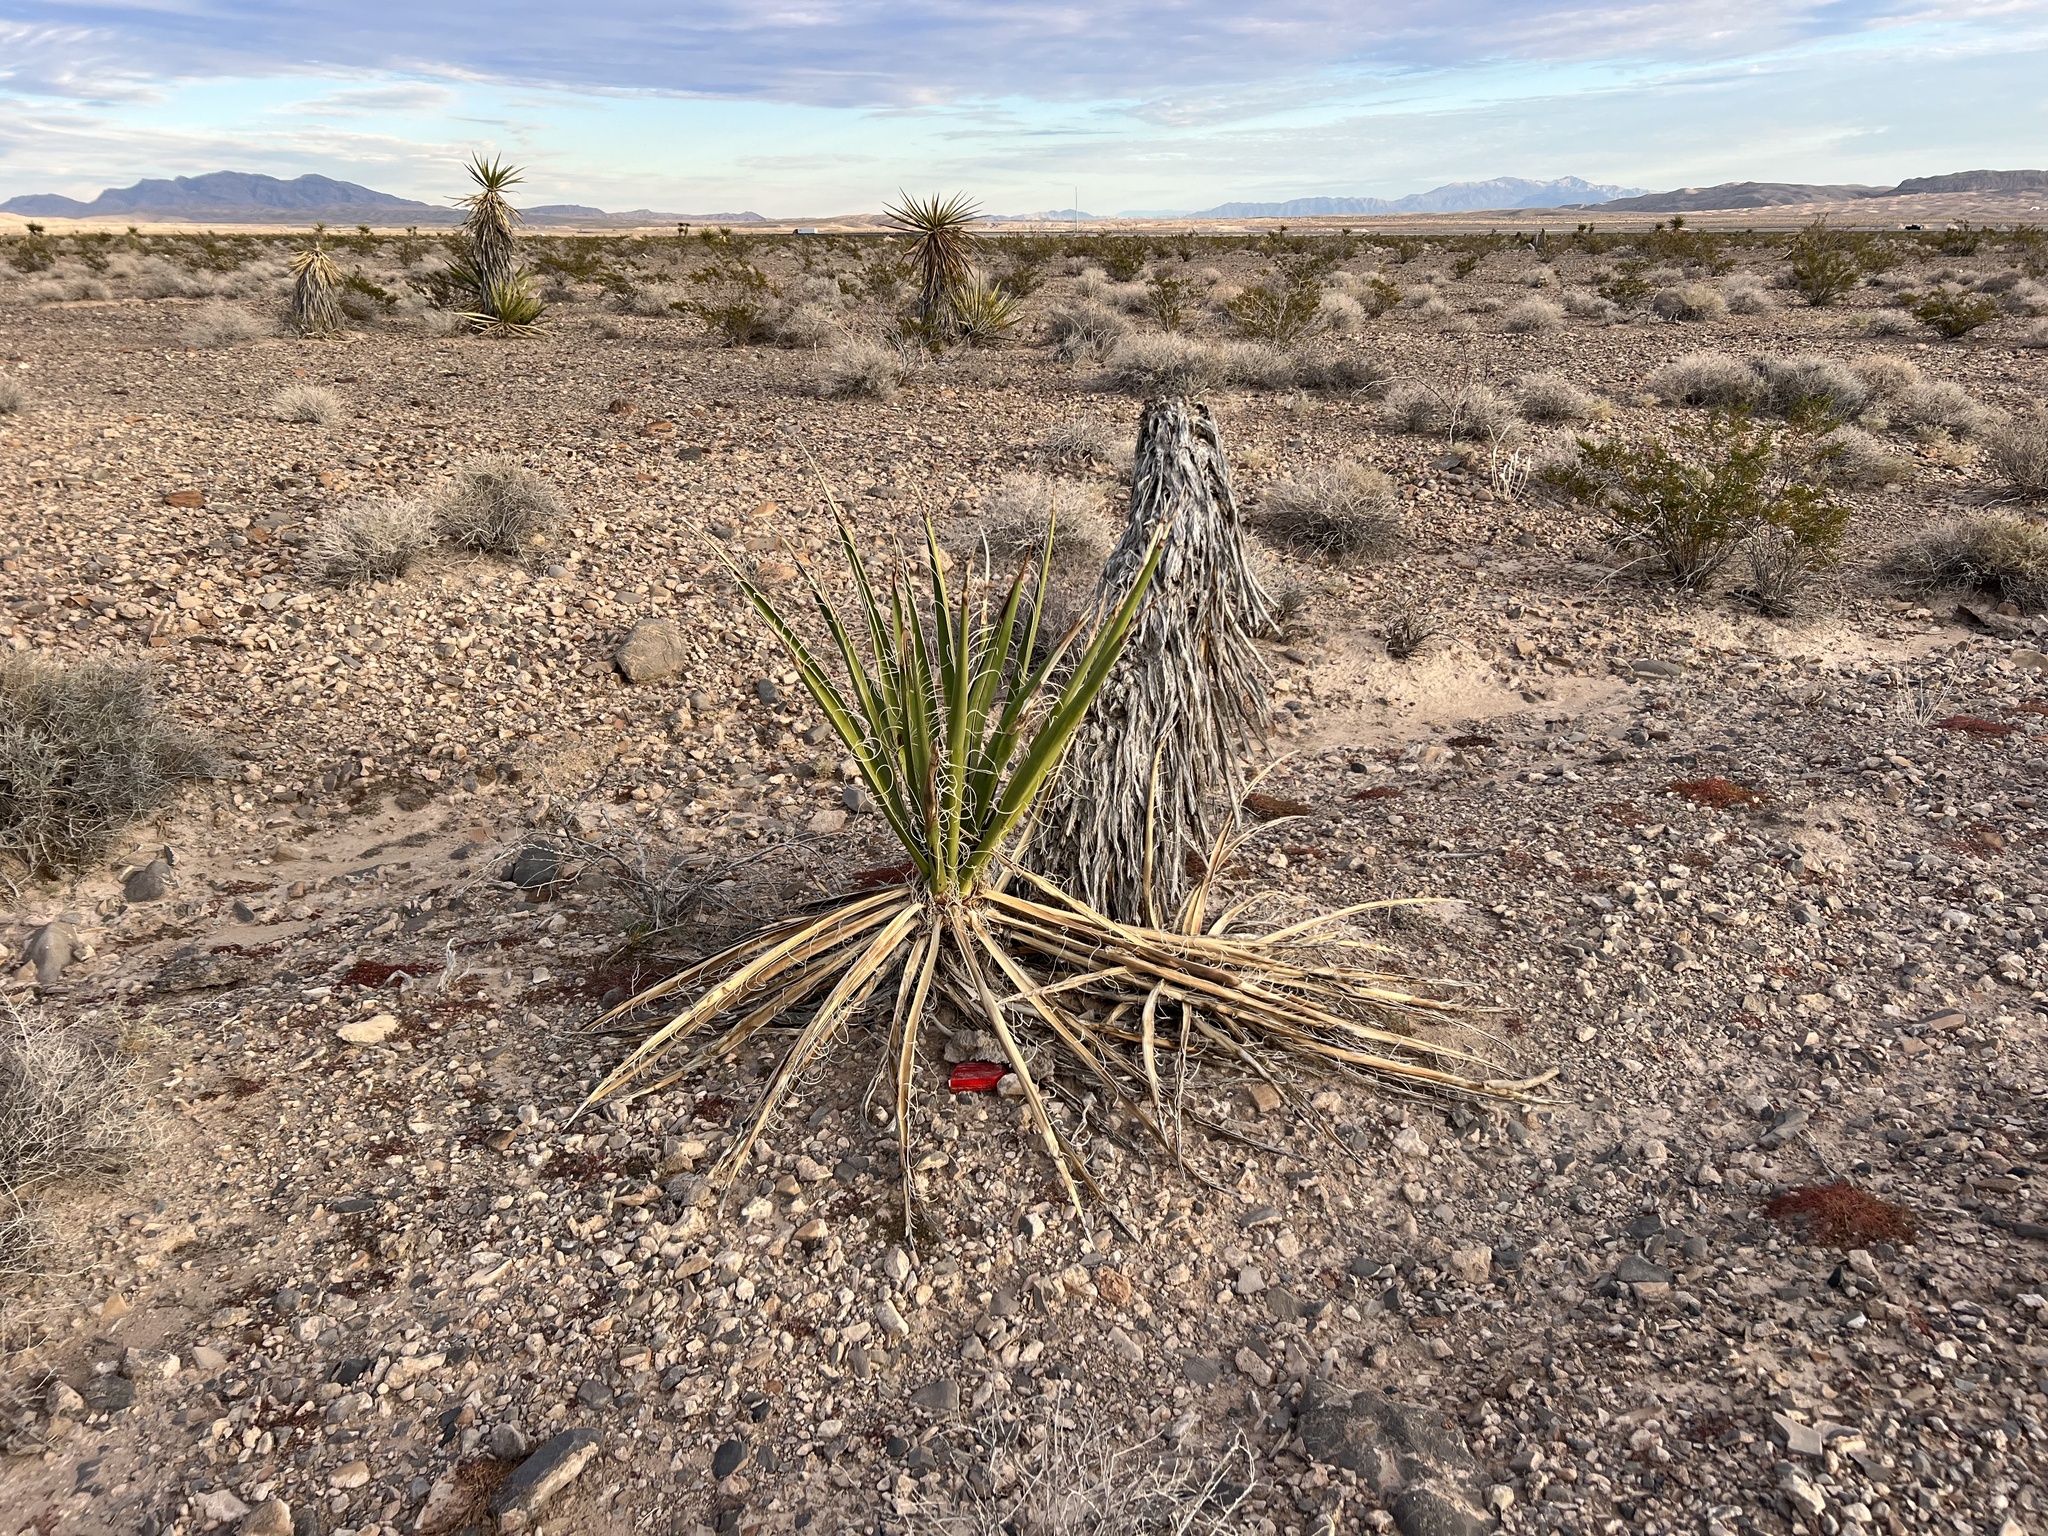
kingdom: Plantae
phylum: Tracheophyta
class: Liliopsida
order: Asparagales
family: Asparagaceae
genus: Yucca
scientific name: Yucca schidigera
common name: Mojave yucca
